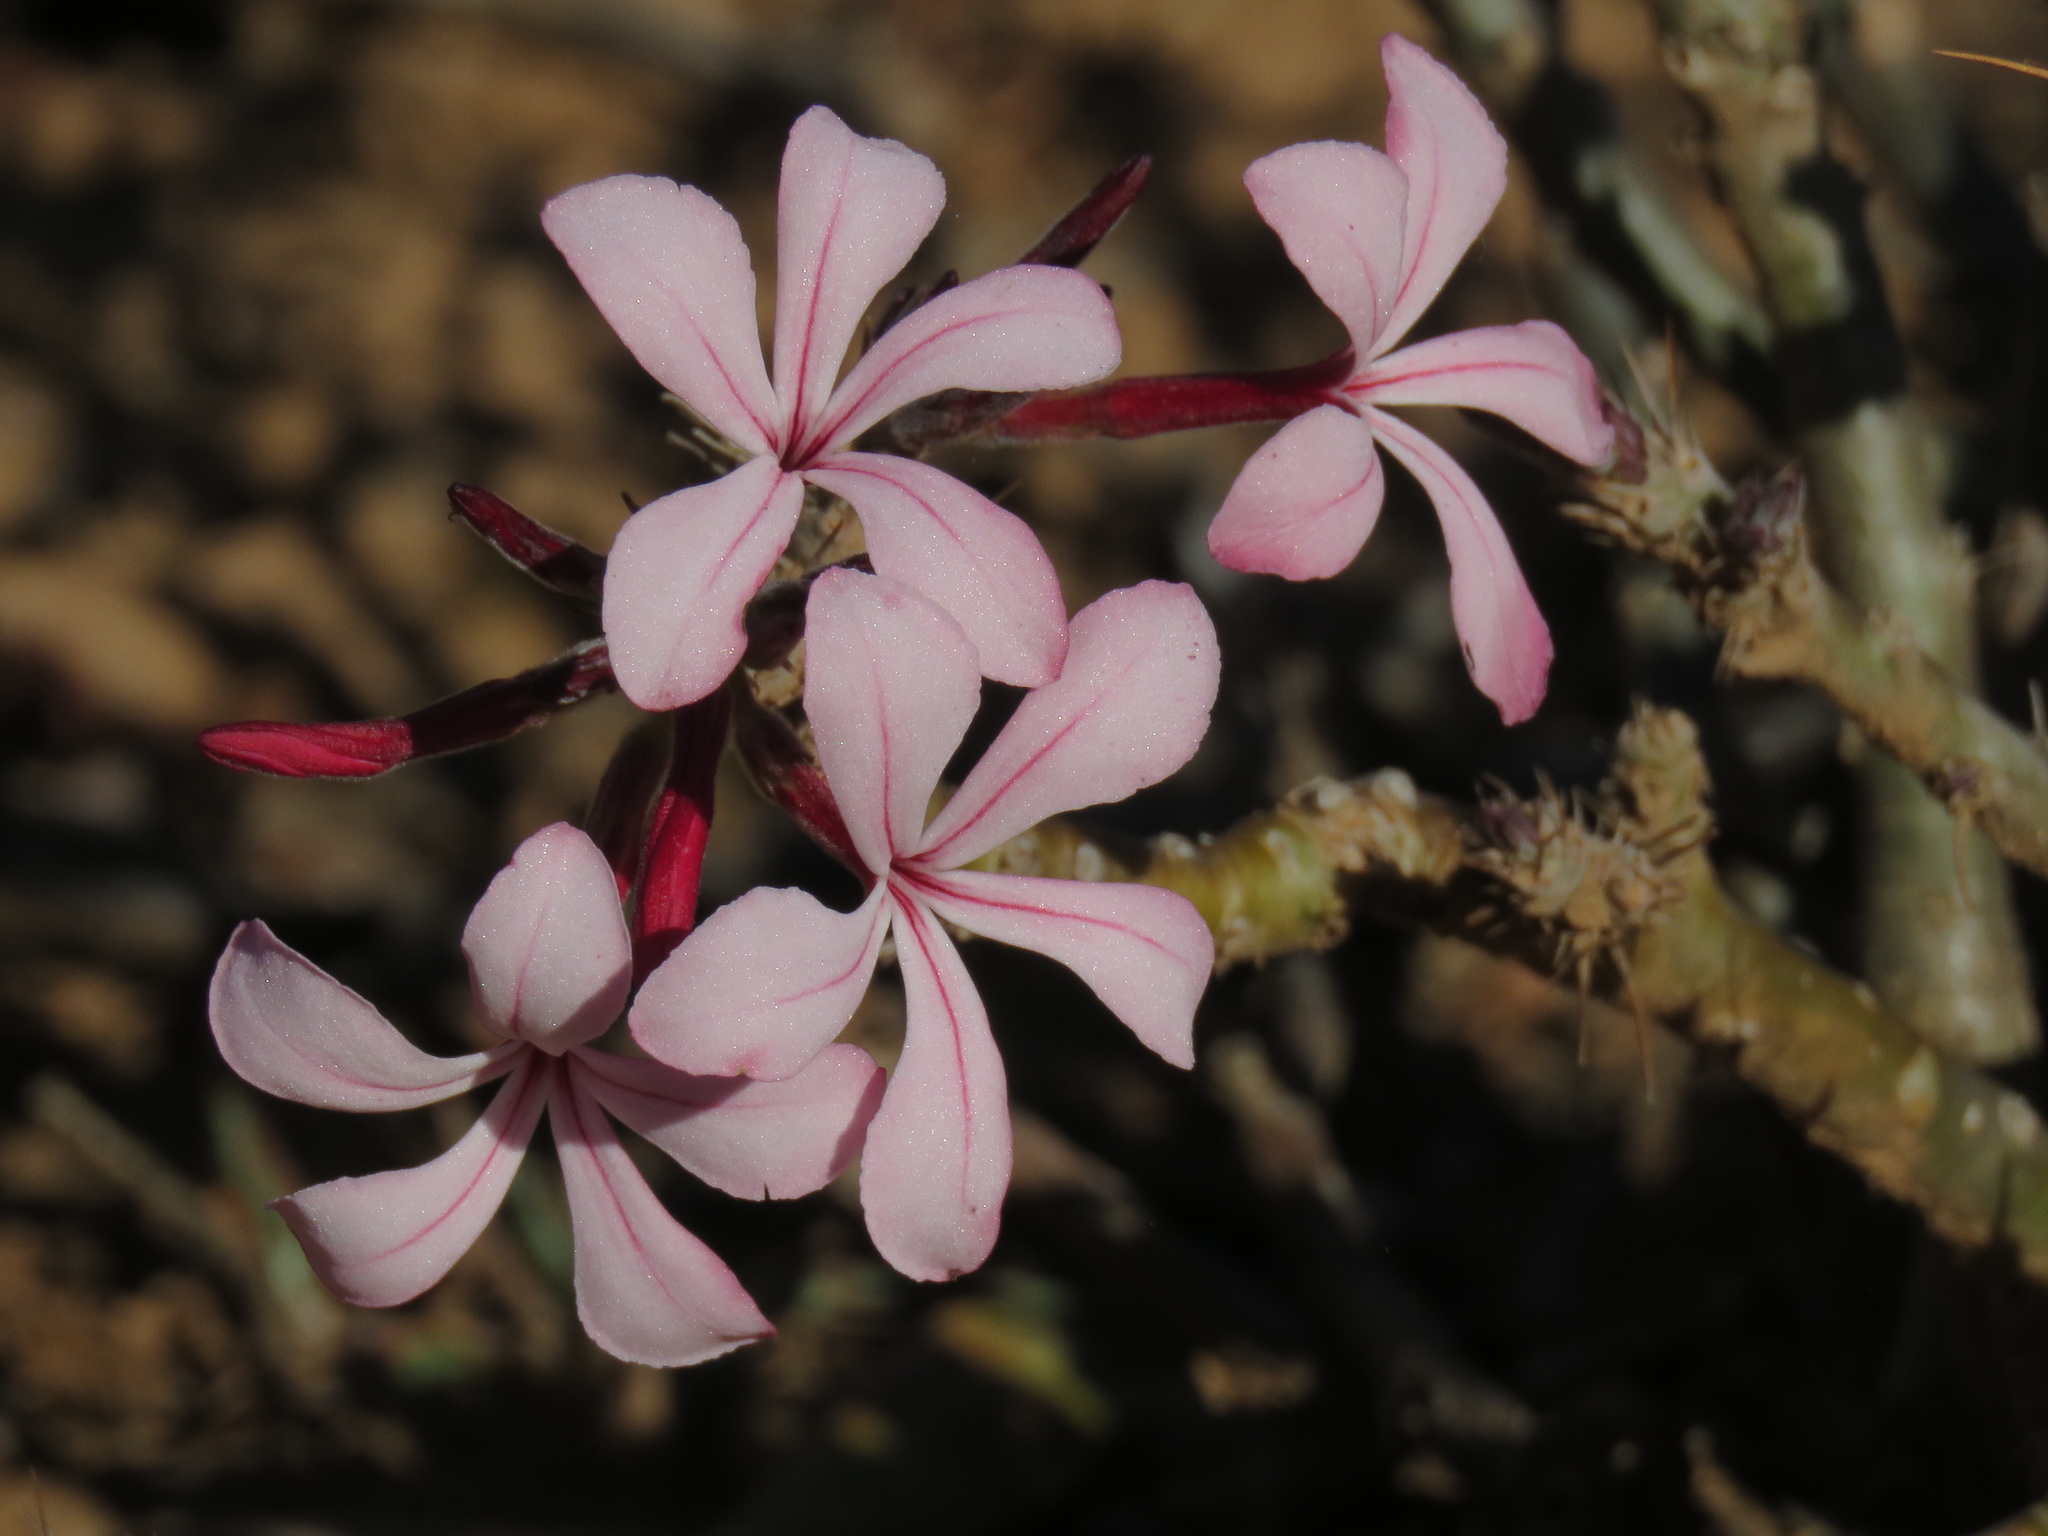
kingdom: Plantae
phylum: Tracheophyta
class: Magnoliopsida
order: Gentianales
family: Apocynaceae
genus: Pachypodium
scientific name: Pachypodium succulentum
